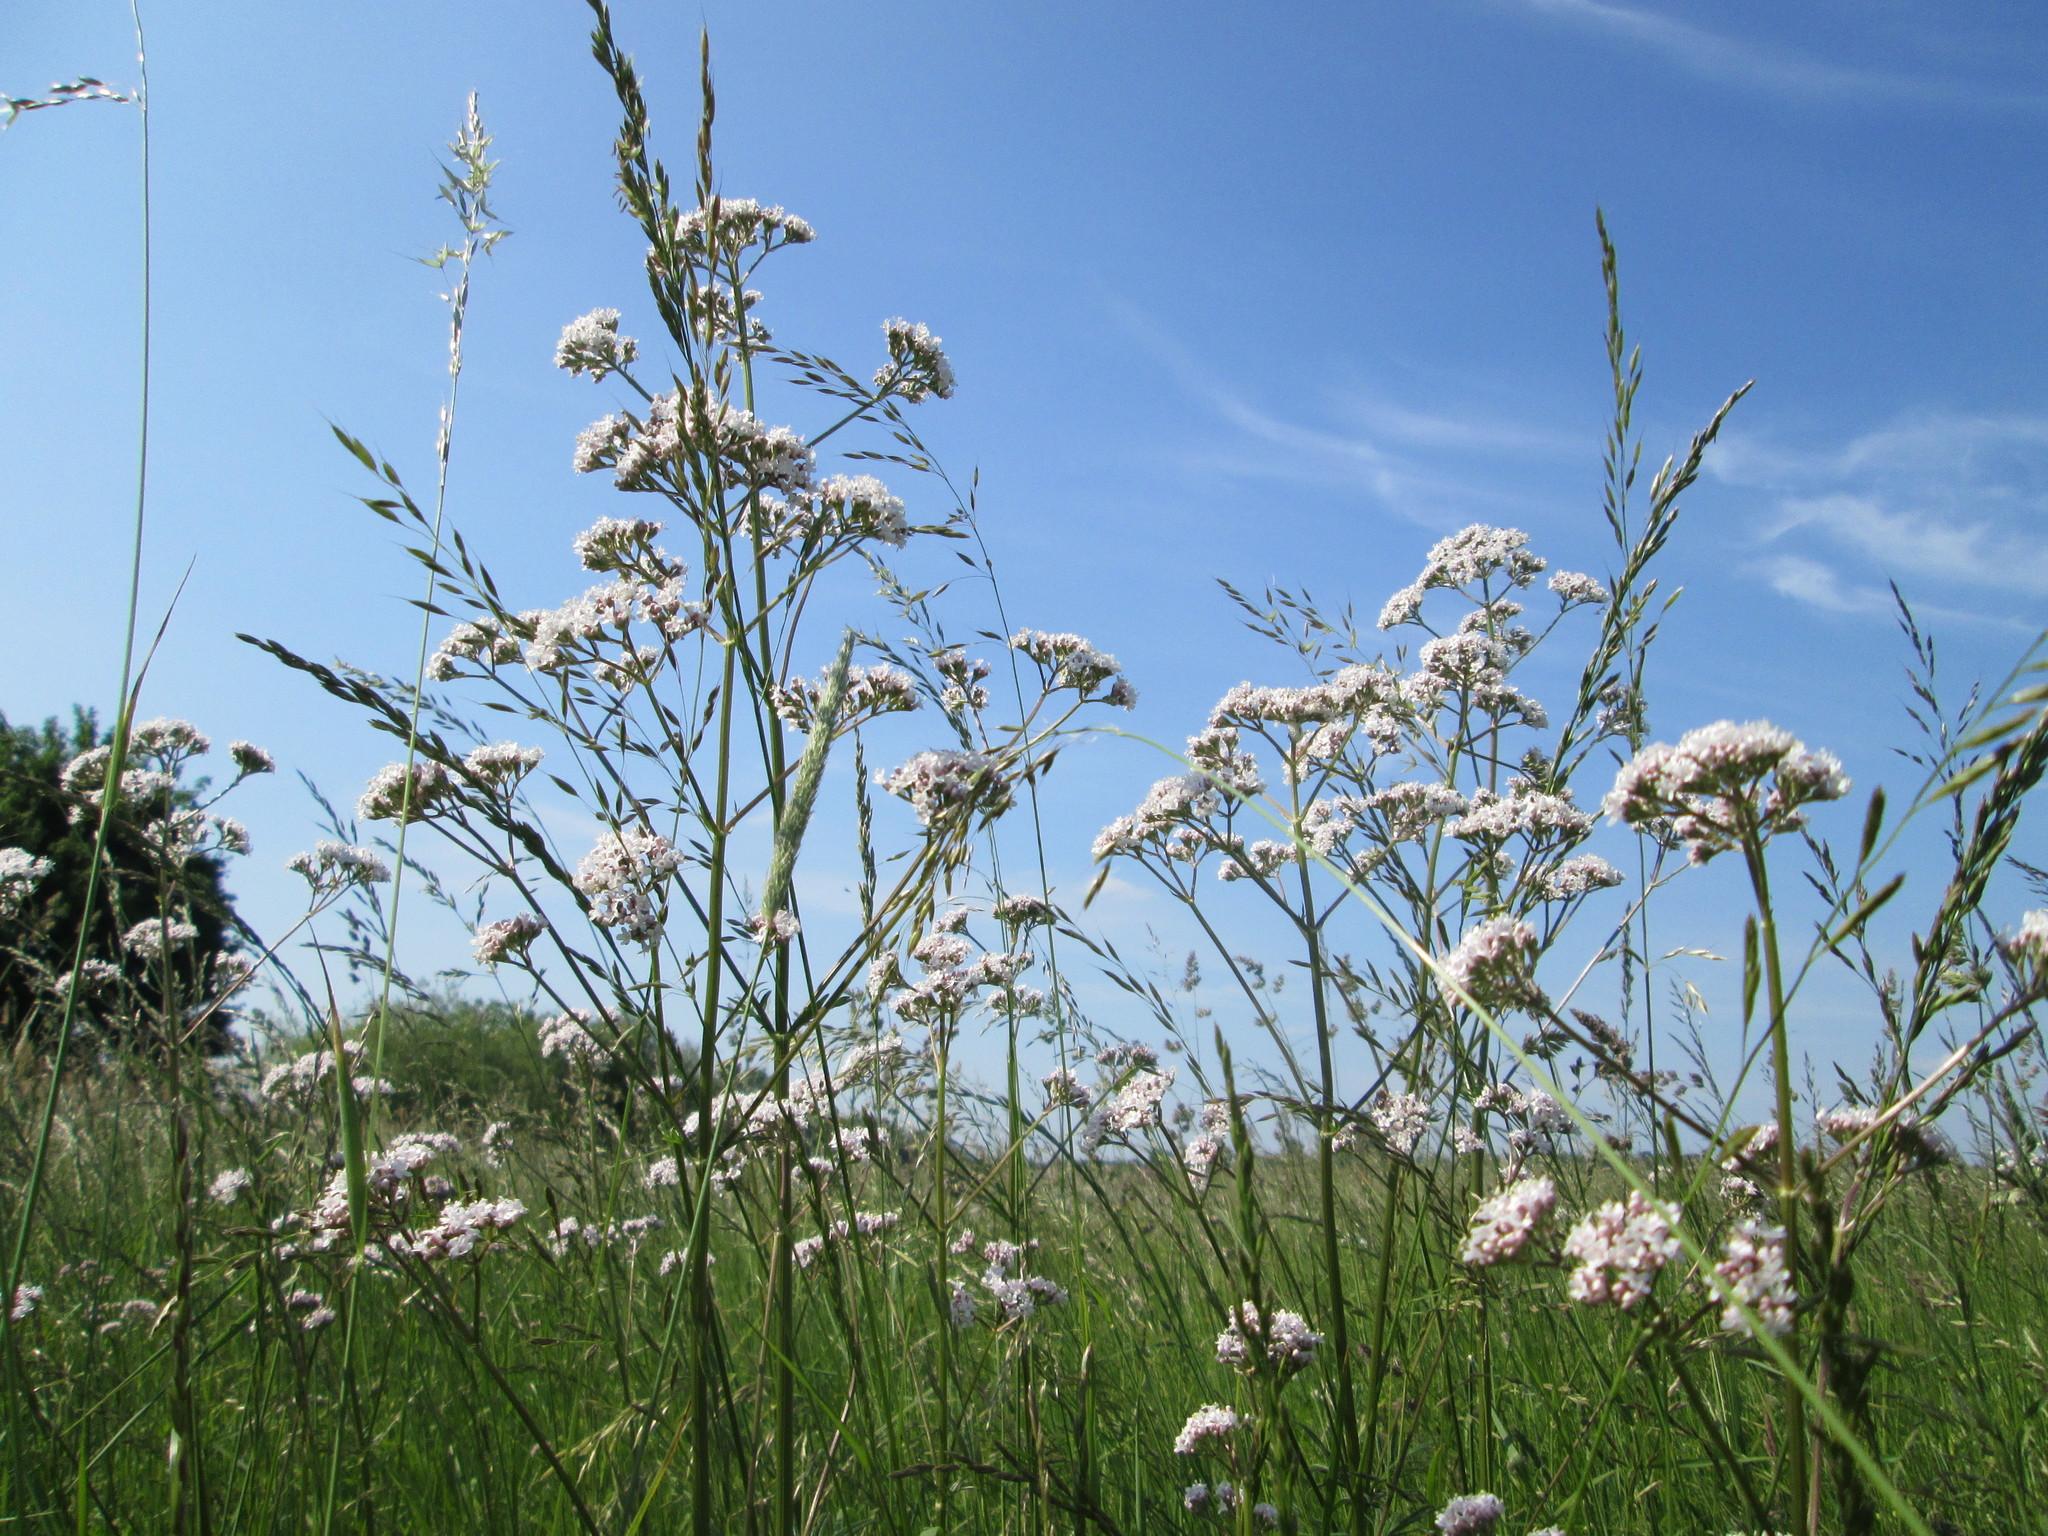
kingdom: Plantae
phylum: Tracheophyta
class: Magnoliopsida
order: Dipsacales
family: Caprifoliaceae
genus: Valeriana
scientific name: Valeriana officinalis
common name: Common valerian
